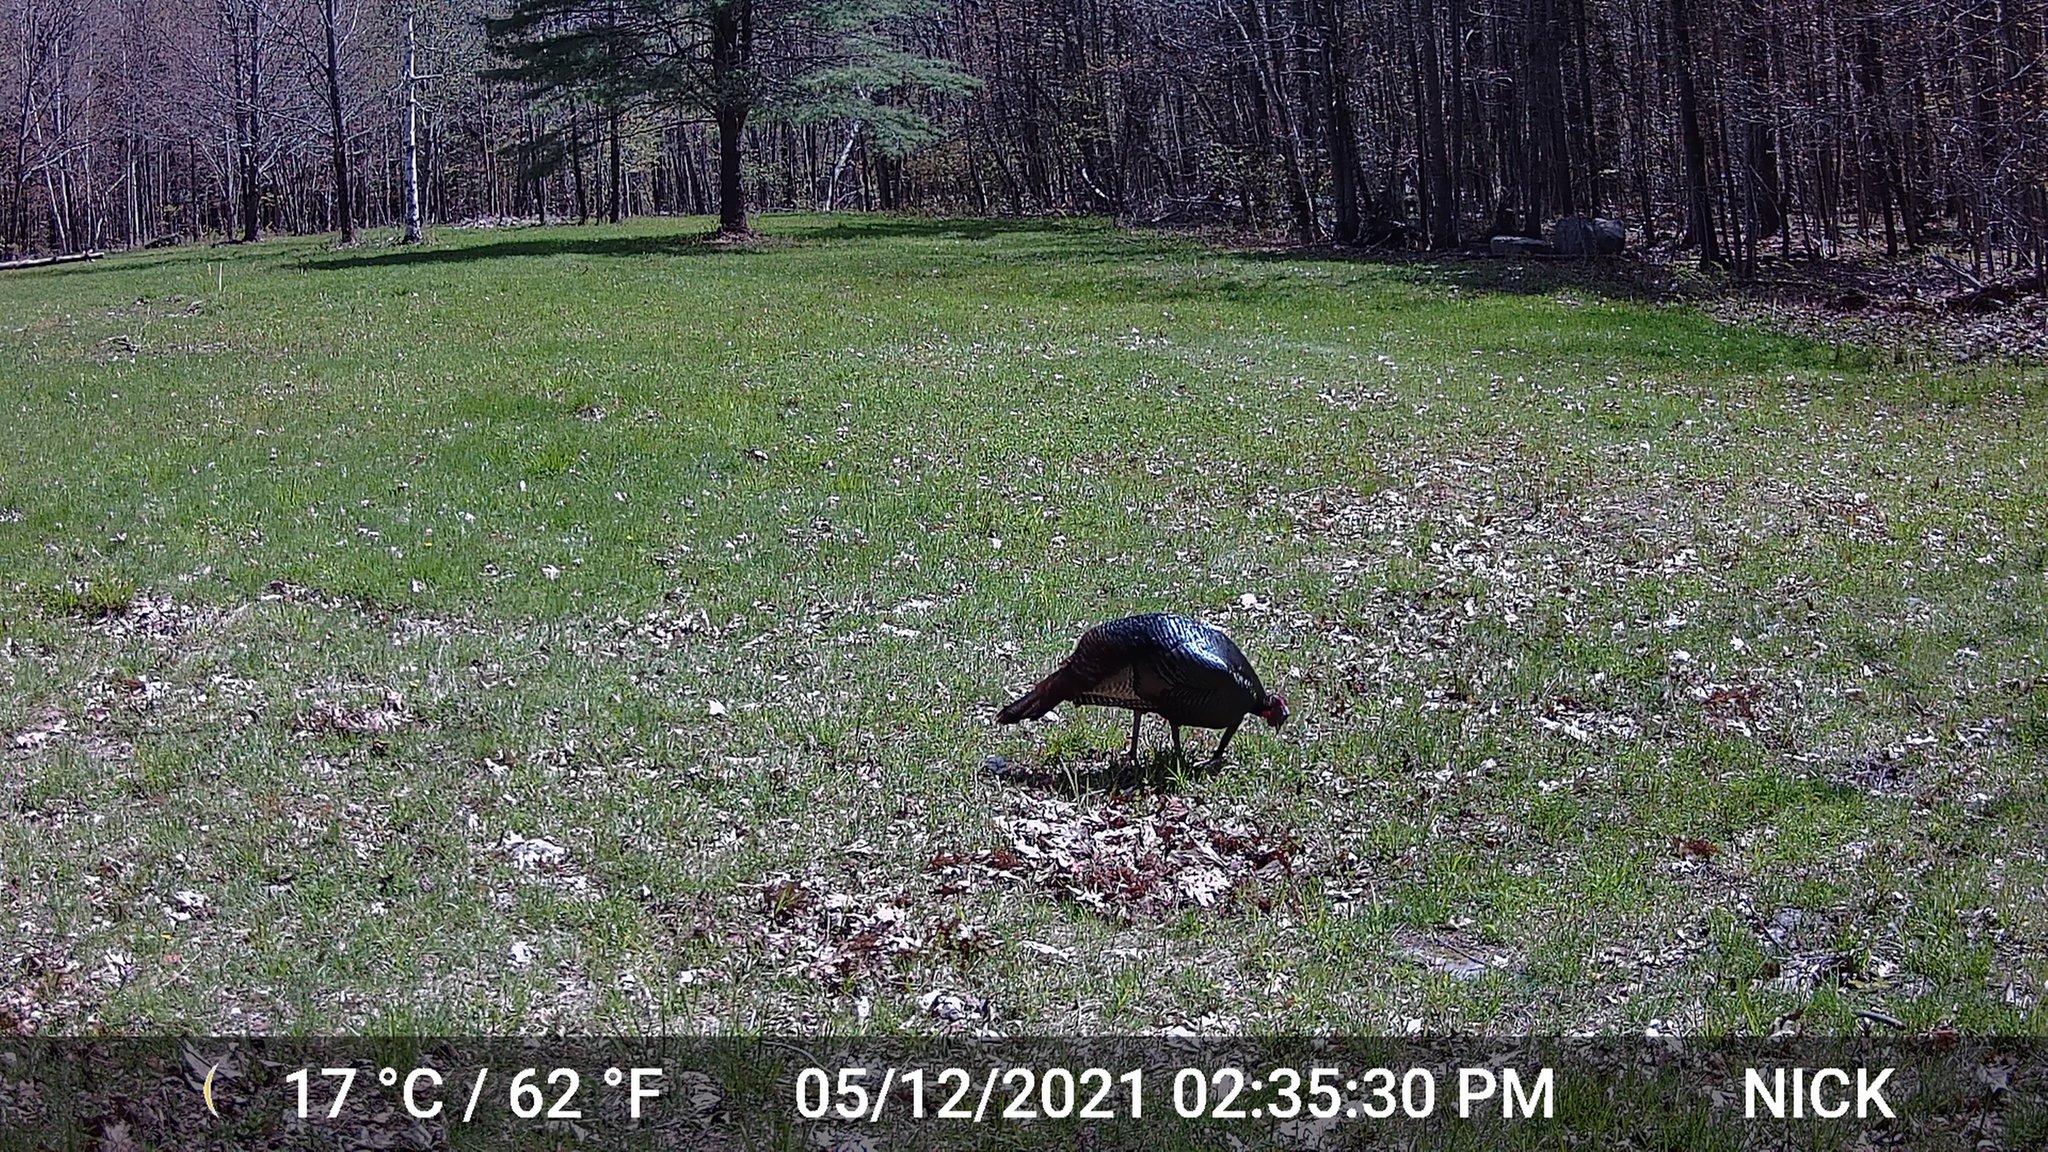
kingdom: Animalia
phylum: Chordata
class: Aves
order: Galliformes
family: Phasianidae
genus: Meleagris
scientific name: Meleagris gallopavo
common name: Wild turkey
